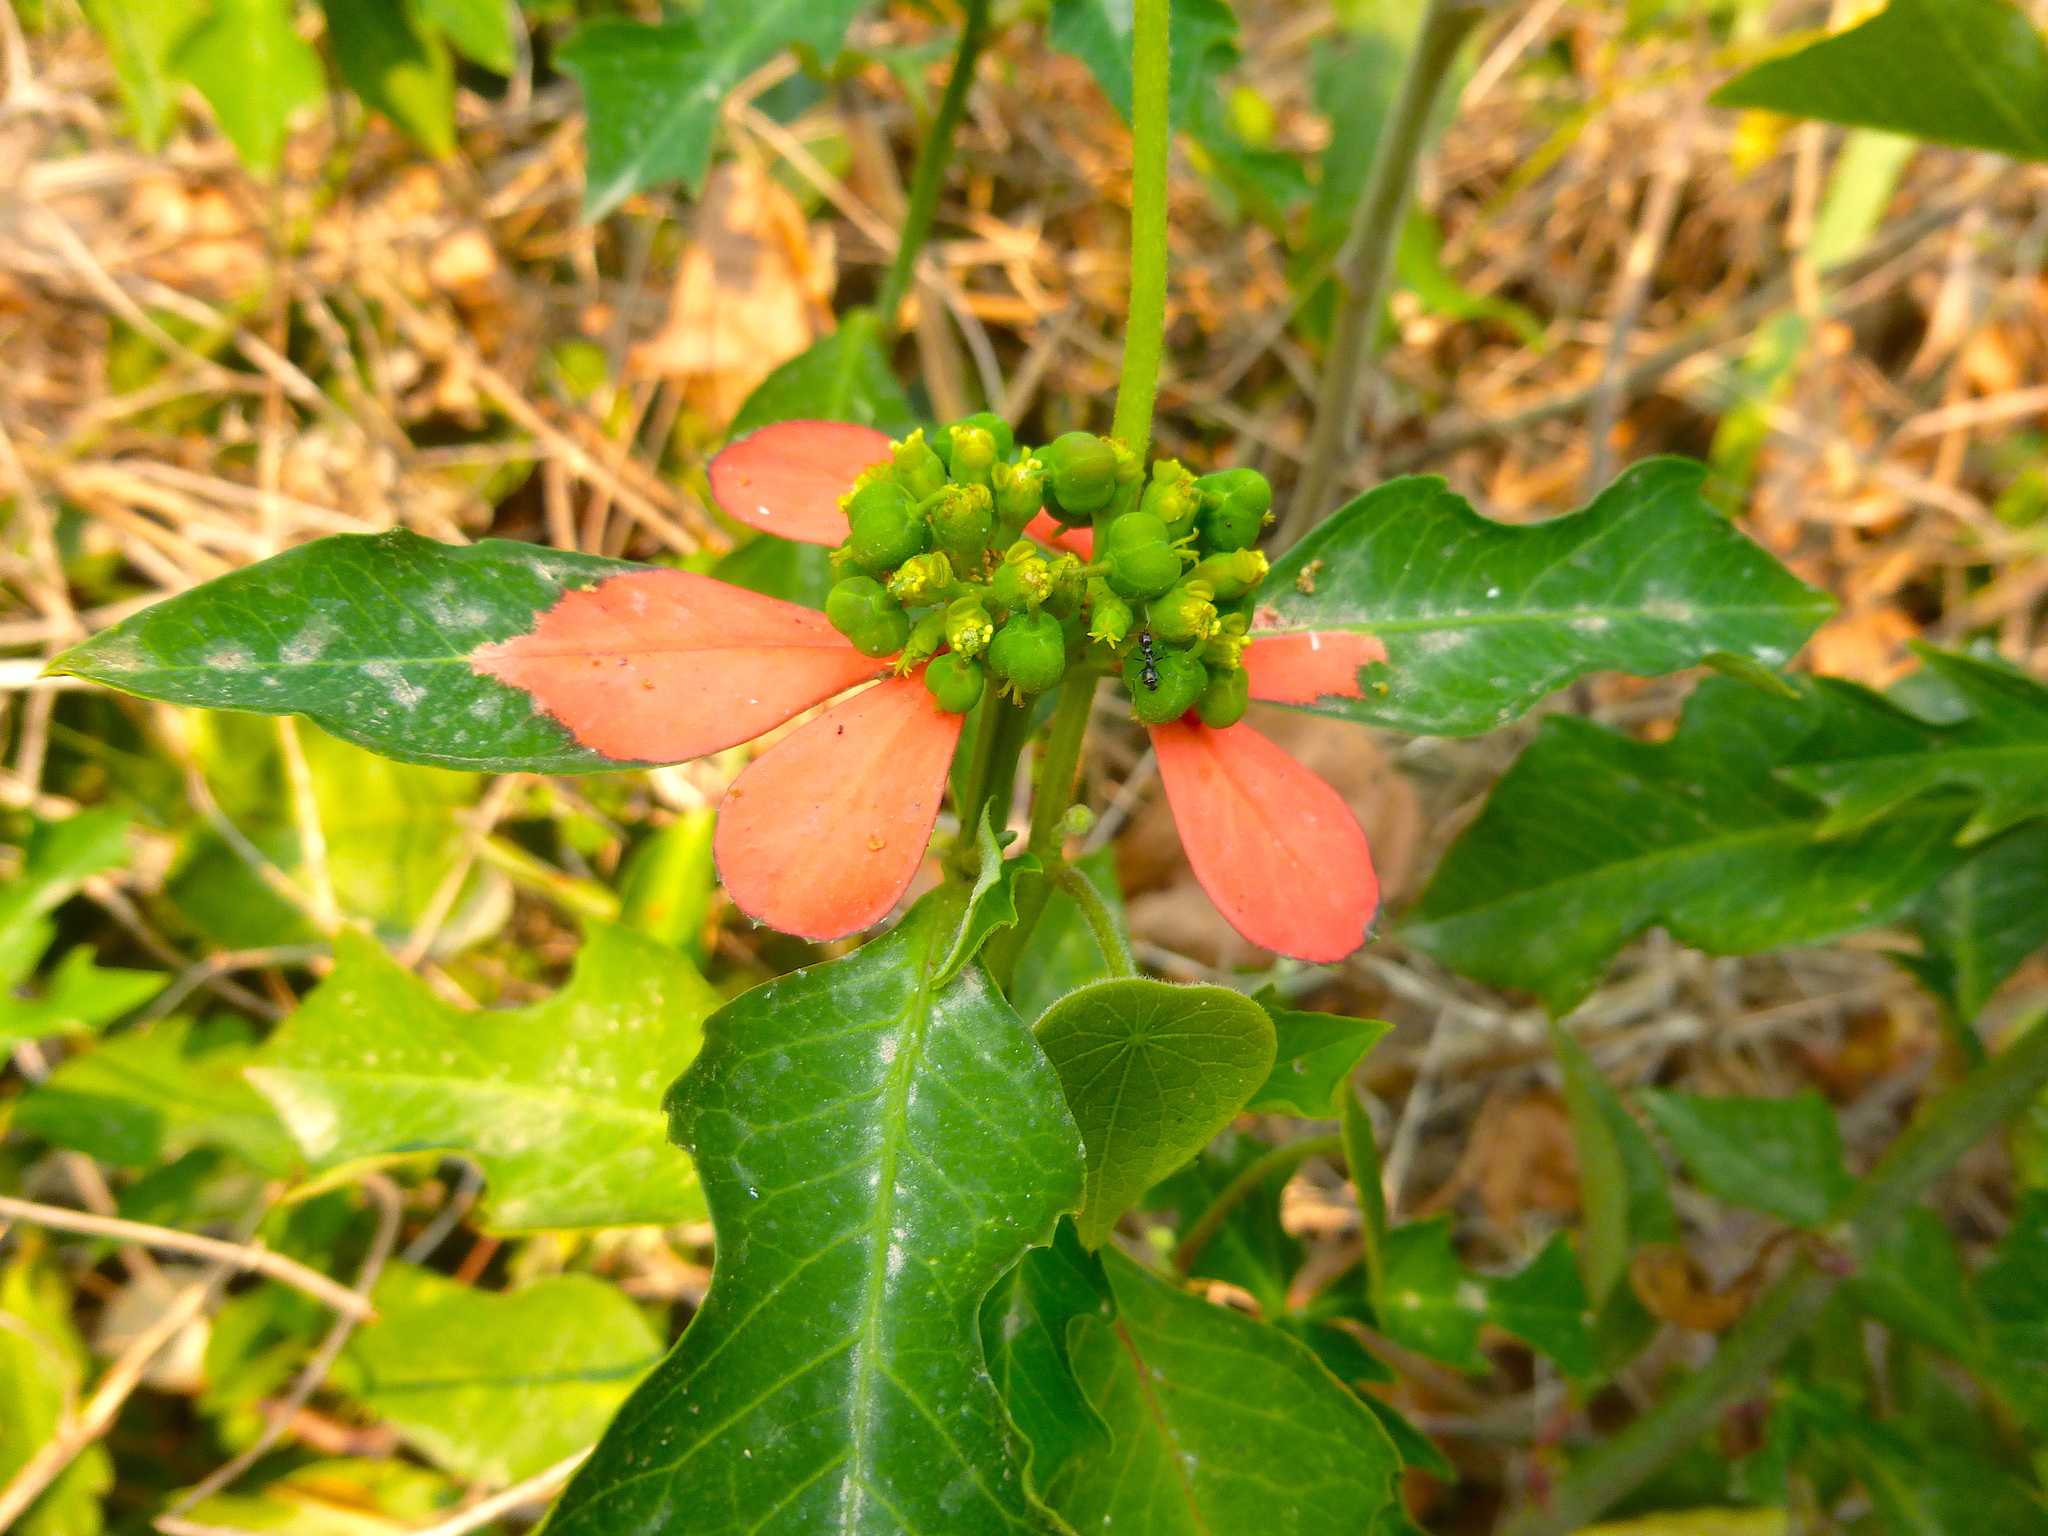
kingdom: Plantae
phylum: Tracheophyta
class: Magnoliopsida
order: Malpighiales
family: Euphorbiaceae
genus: Euphorbia
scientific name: Euphorbia heterophylla
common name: Mexican fireplant
